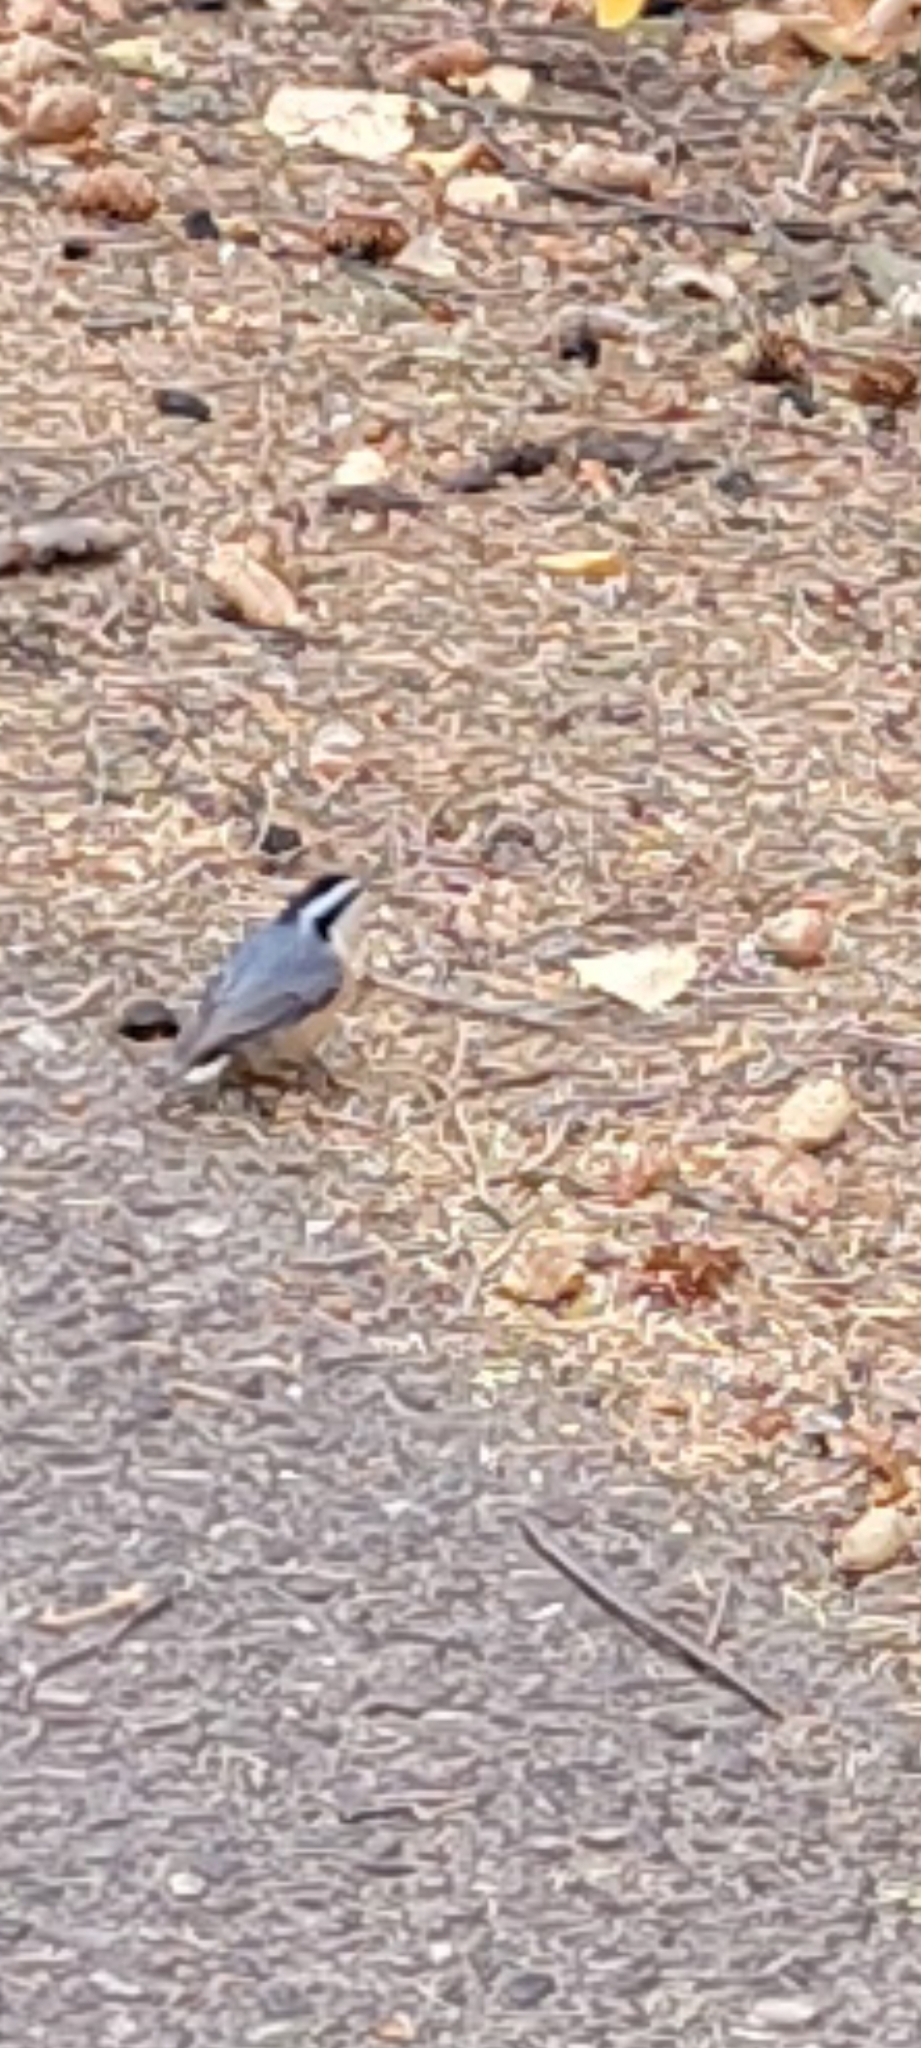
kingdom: Animalia
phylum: Chordata
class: Aves
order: Passeriformes
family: Sittidae
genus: Sitta
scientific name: Sitta canadensis
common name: Red-breasted nuthatch
